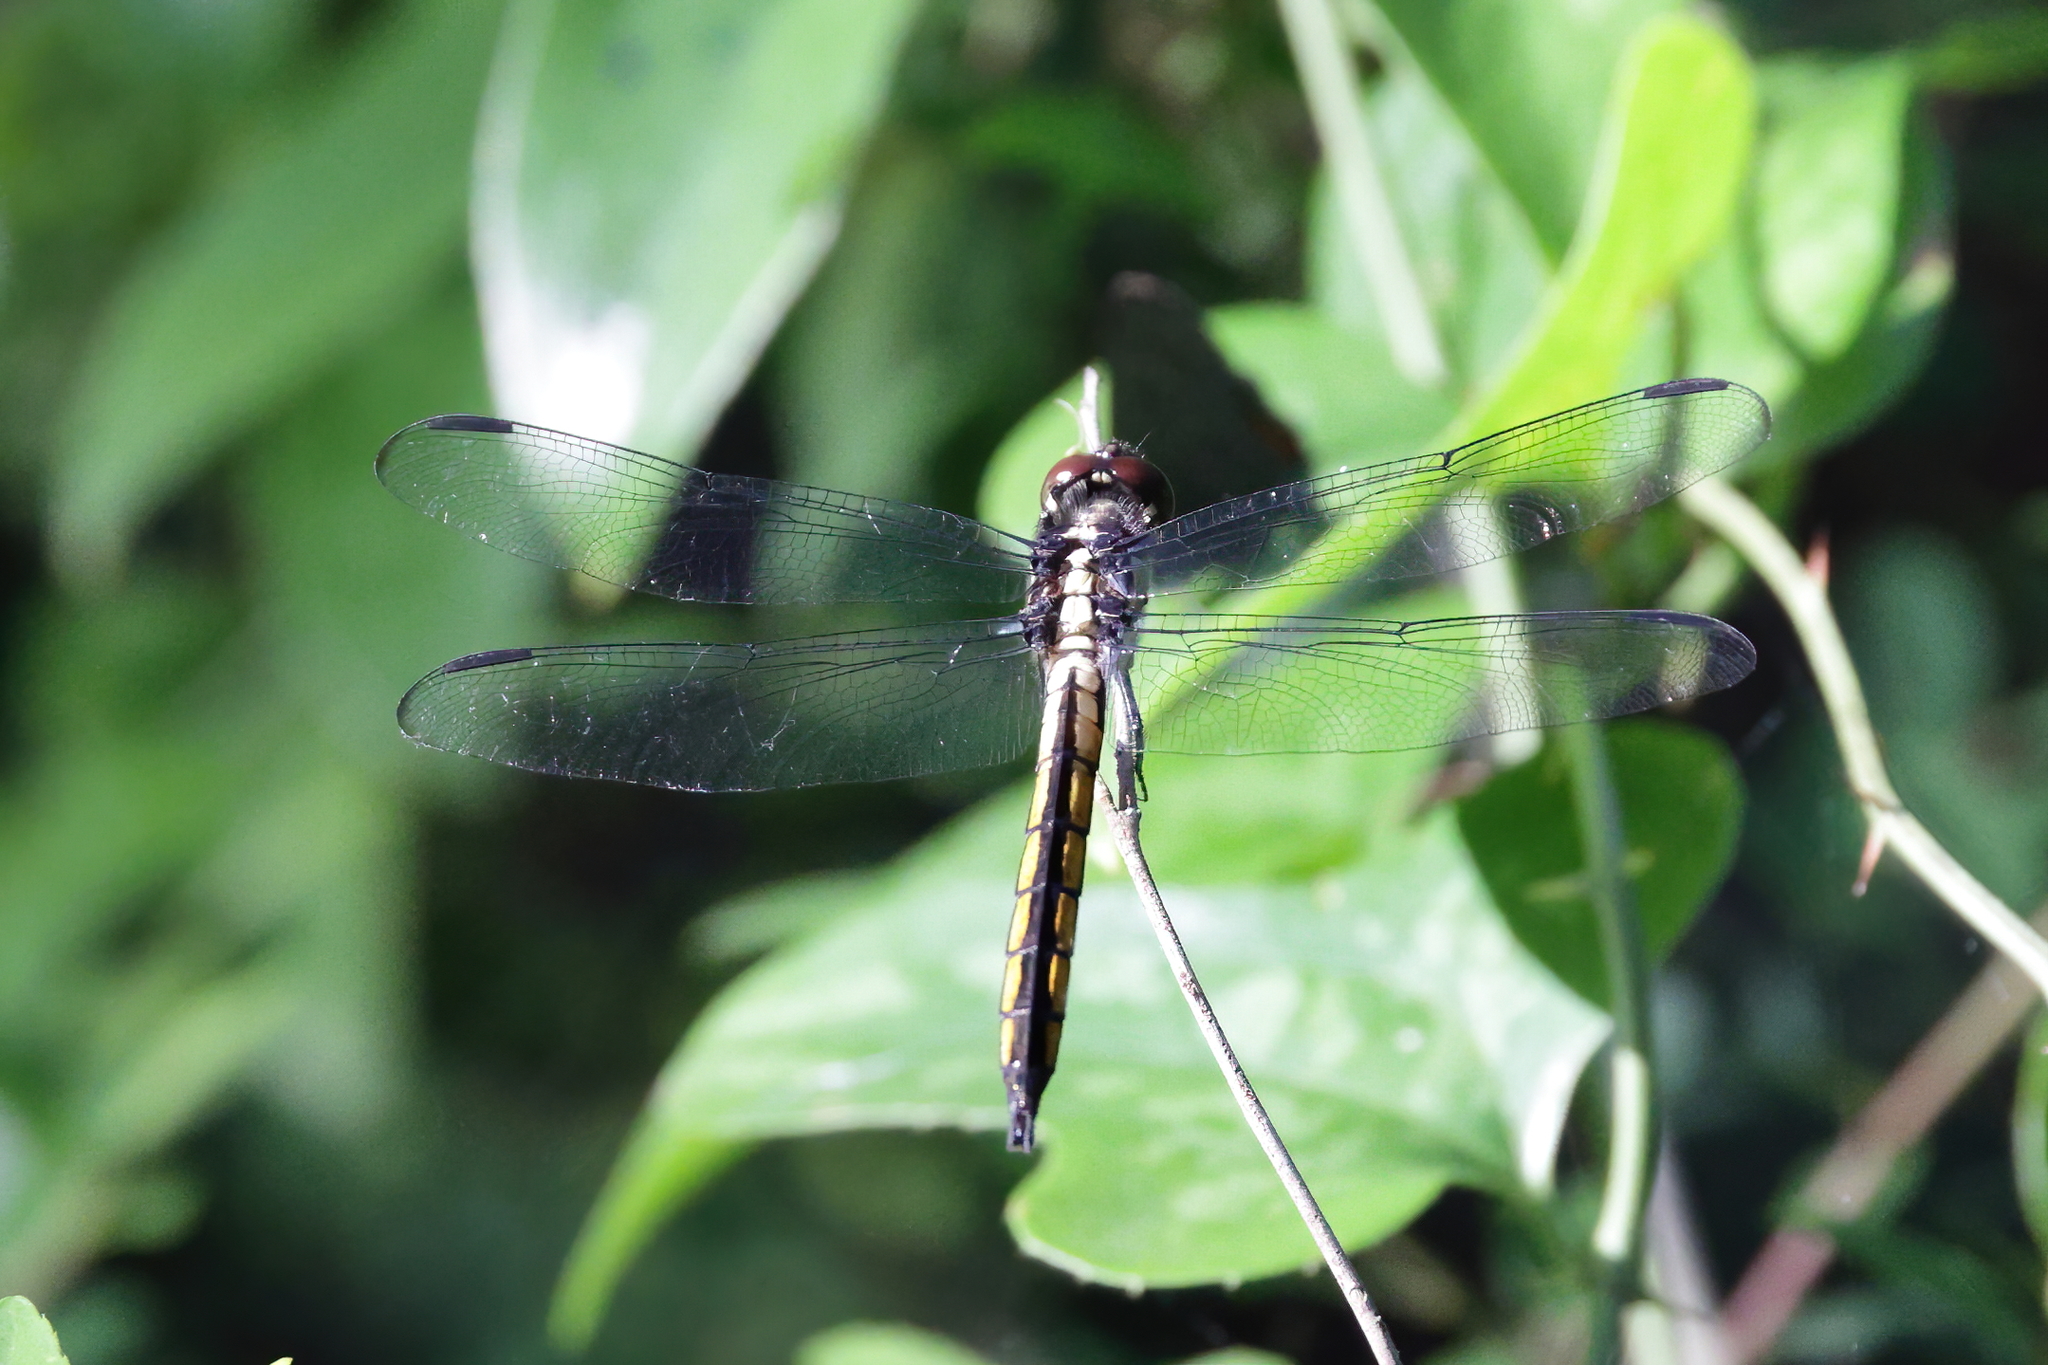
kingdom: Animalia
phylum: Arthropoda
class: Insecta
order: Odonata
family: Libellulidae
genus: Libellula
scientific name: Libellula incesta
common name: Slaty skimmer
